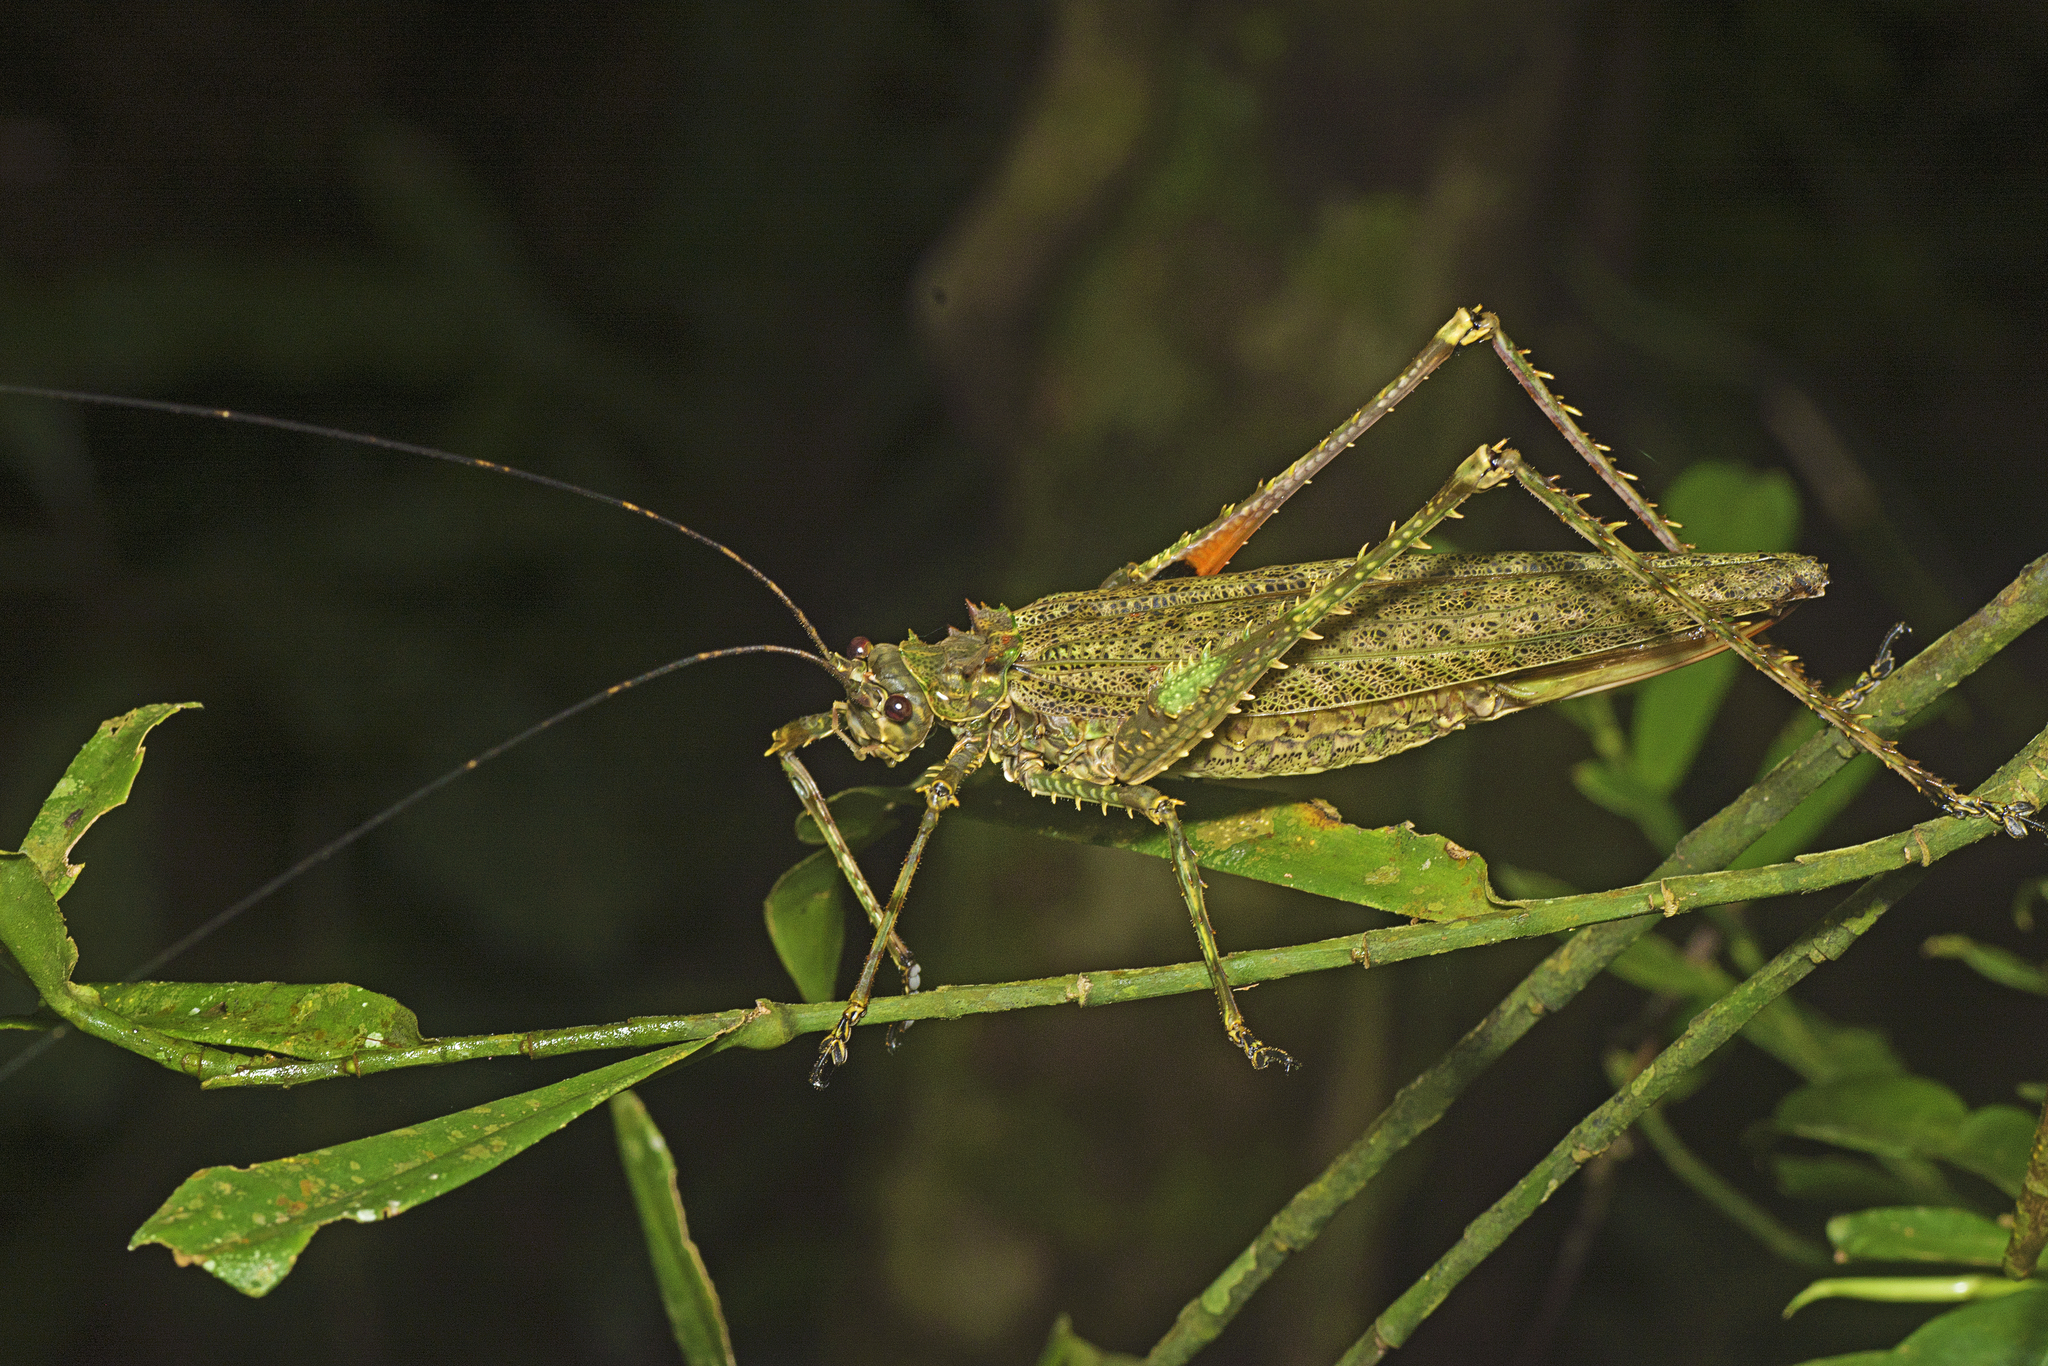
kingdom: Animalia
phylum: Arthropoda
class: Insecta
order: Orthoptera
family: Tettigoniidae
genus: Phricta
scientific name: Phricta spinosa
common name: Giant spiny forest katydid
